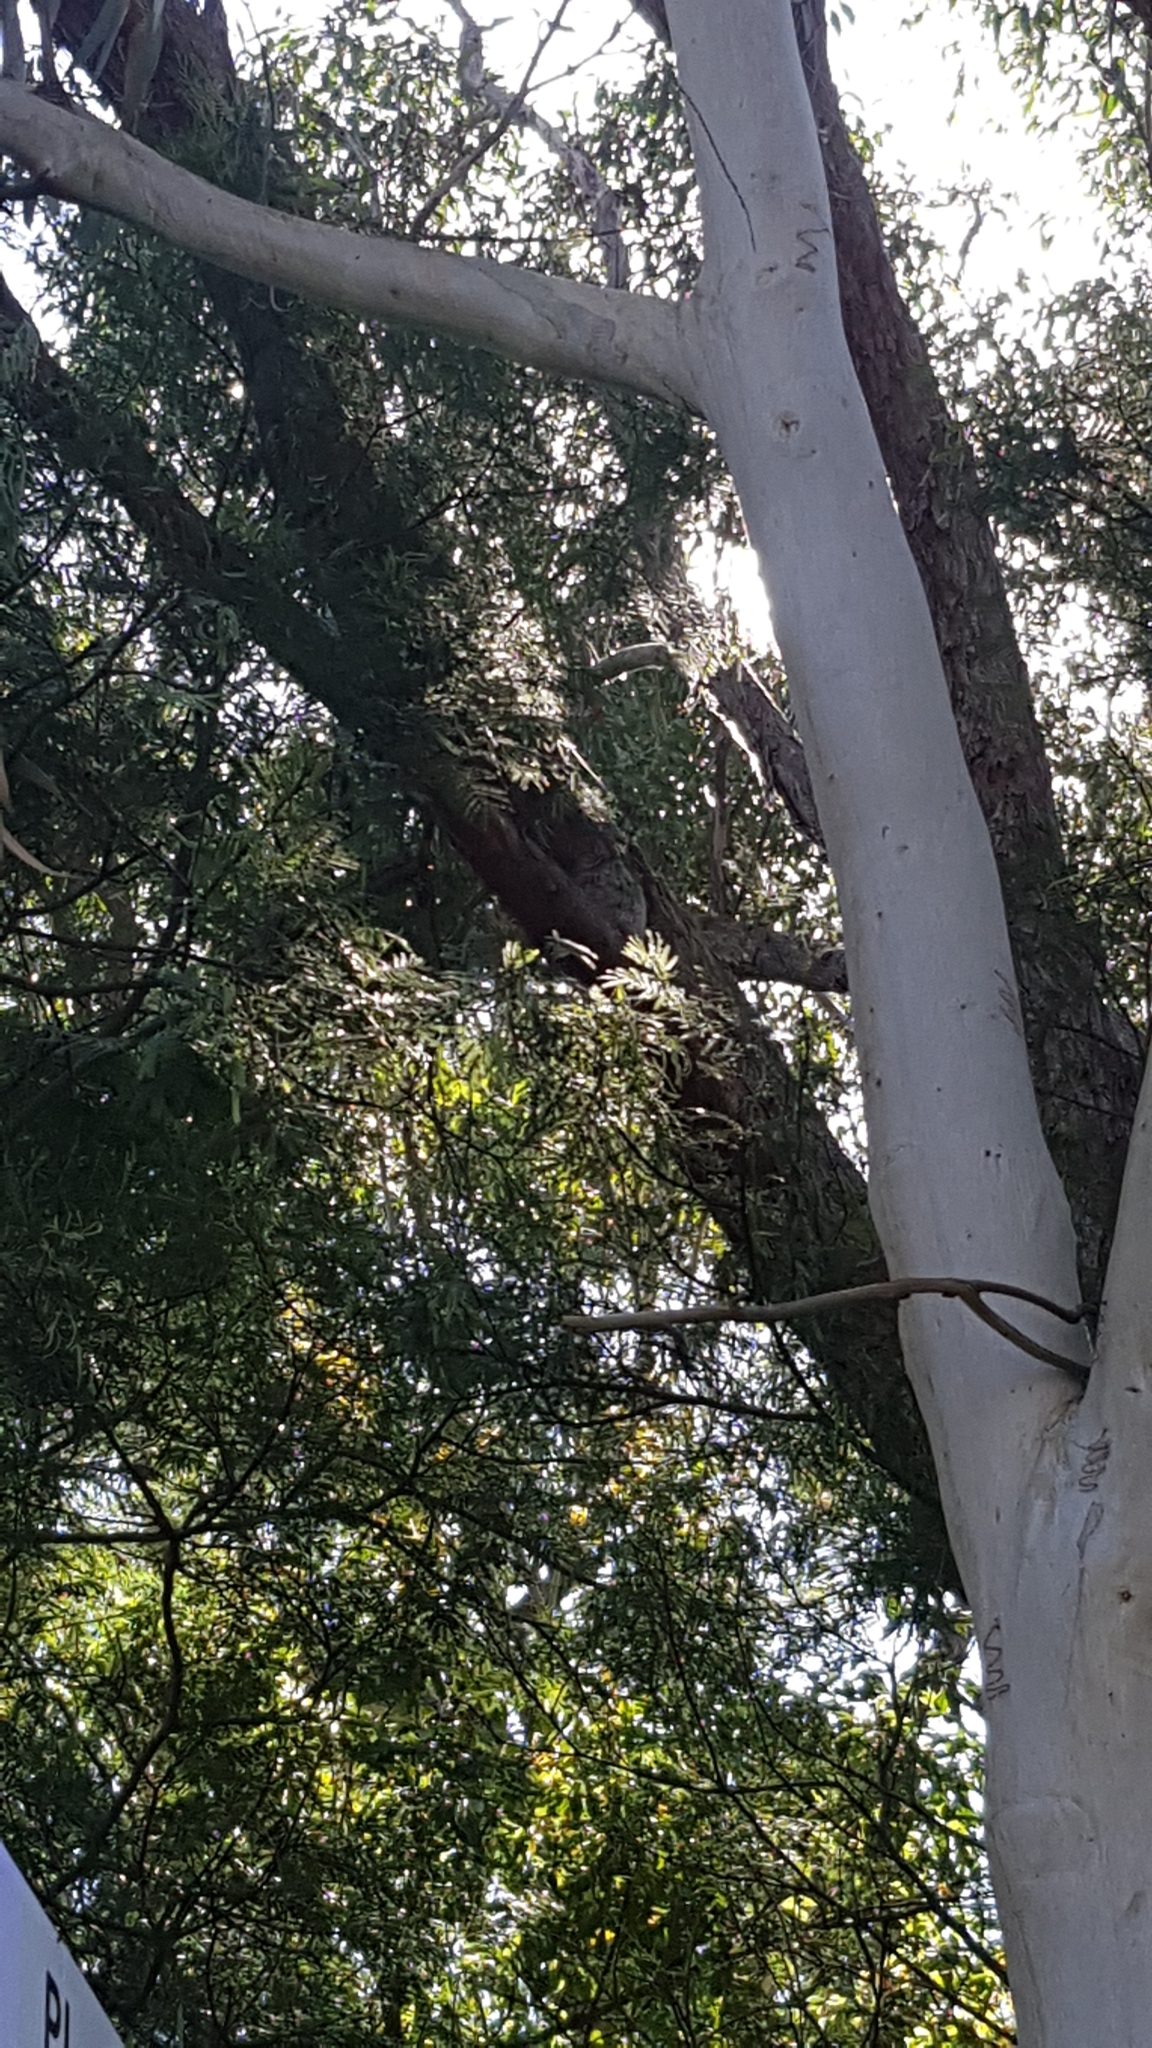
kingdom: Animalia
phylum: Chordata
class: Aves
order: Caprimulgiformes
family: Podargidae
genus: Podargus
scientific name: Podargus strigoides
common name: Tawny frogmouth
